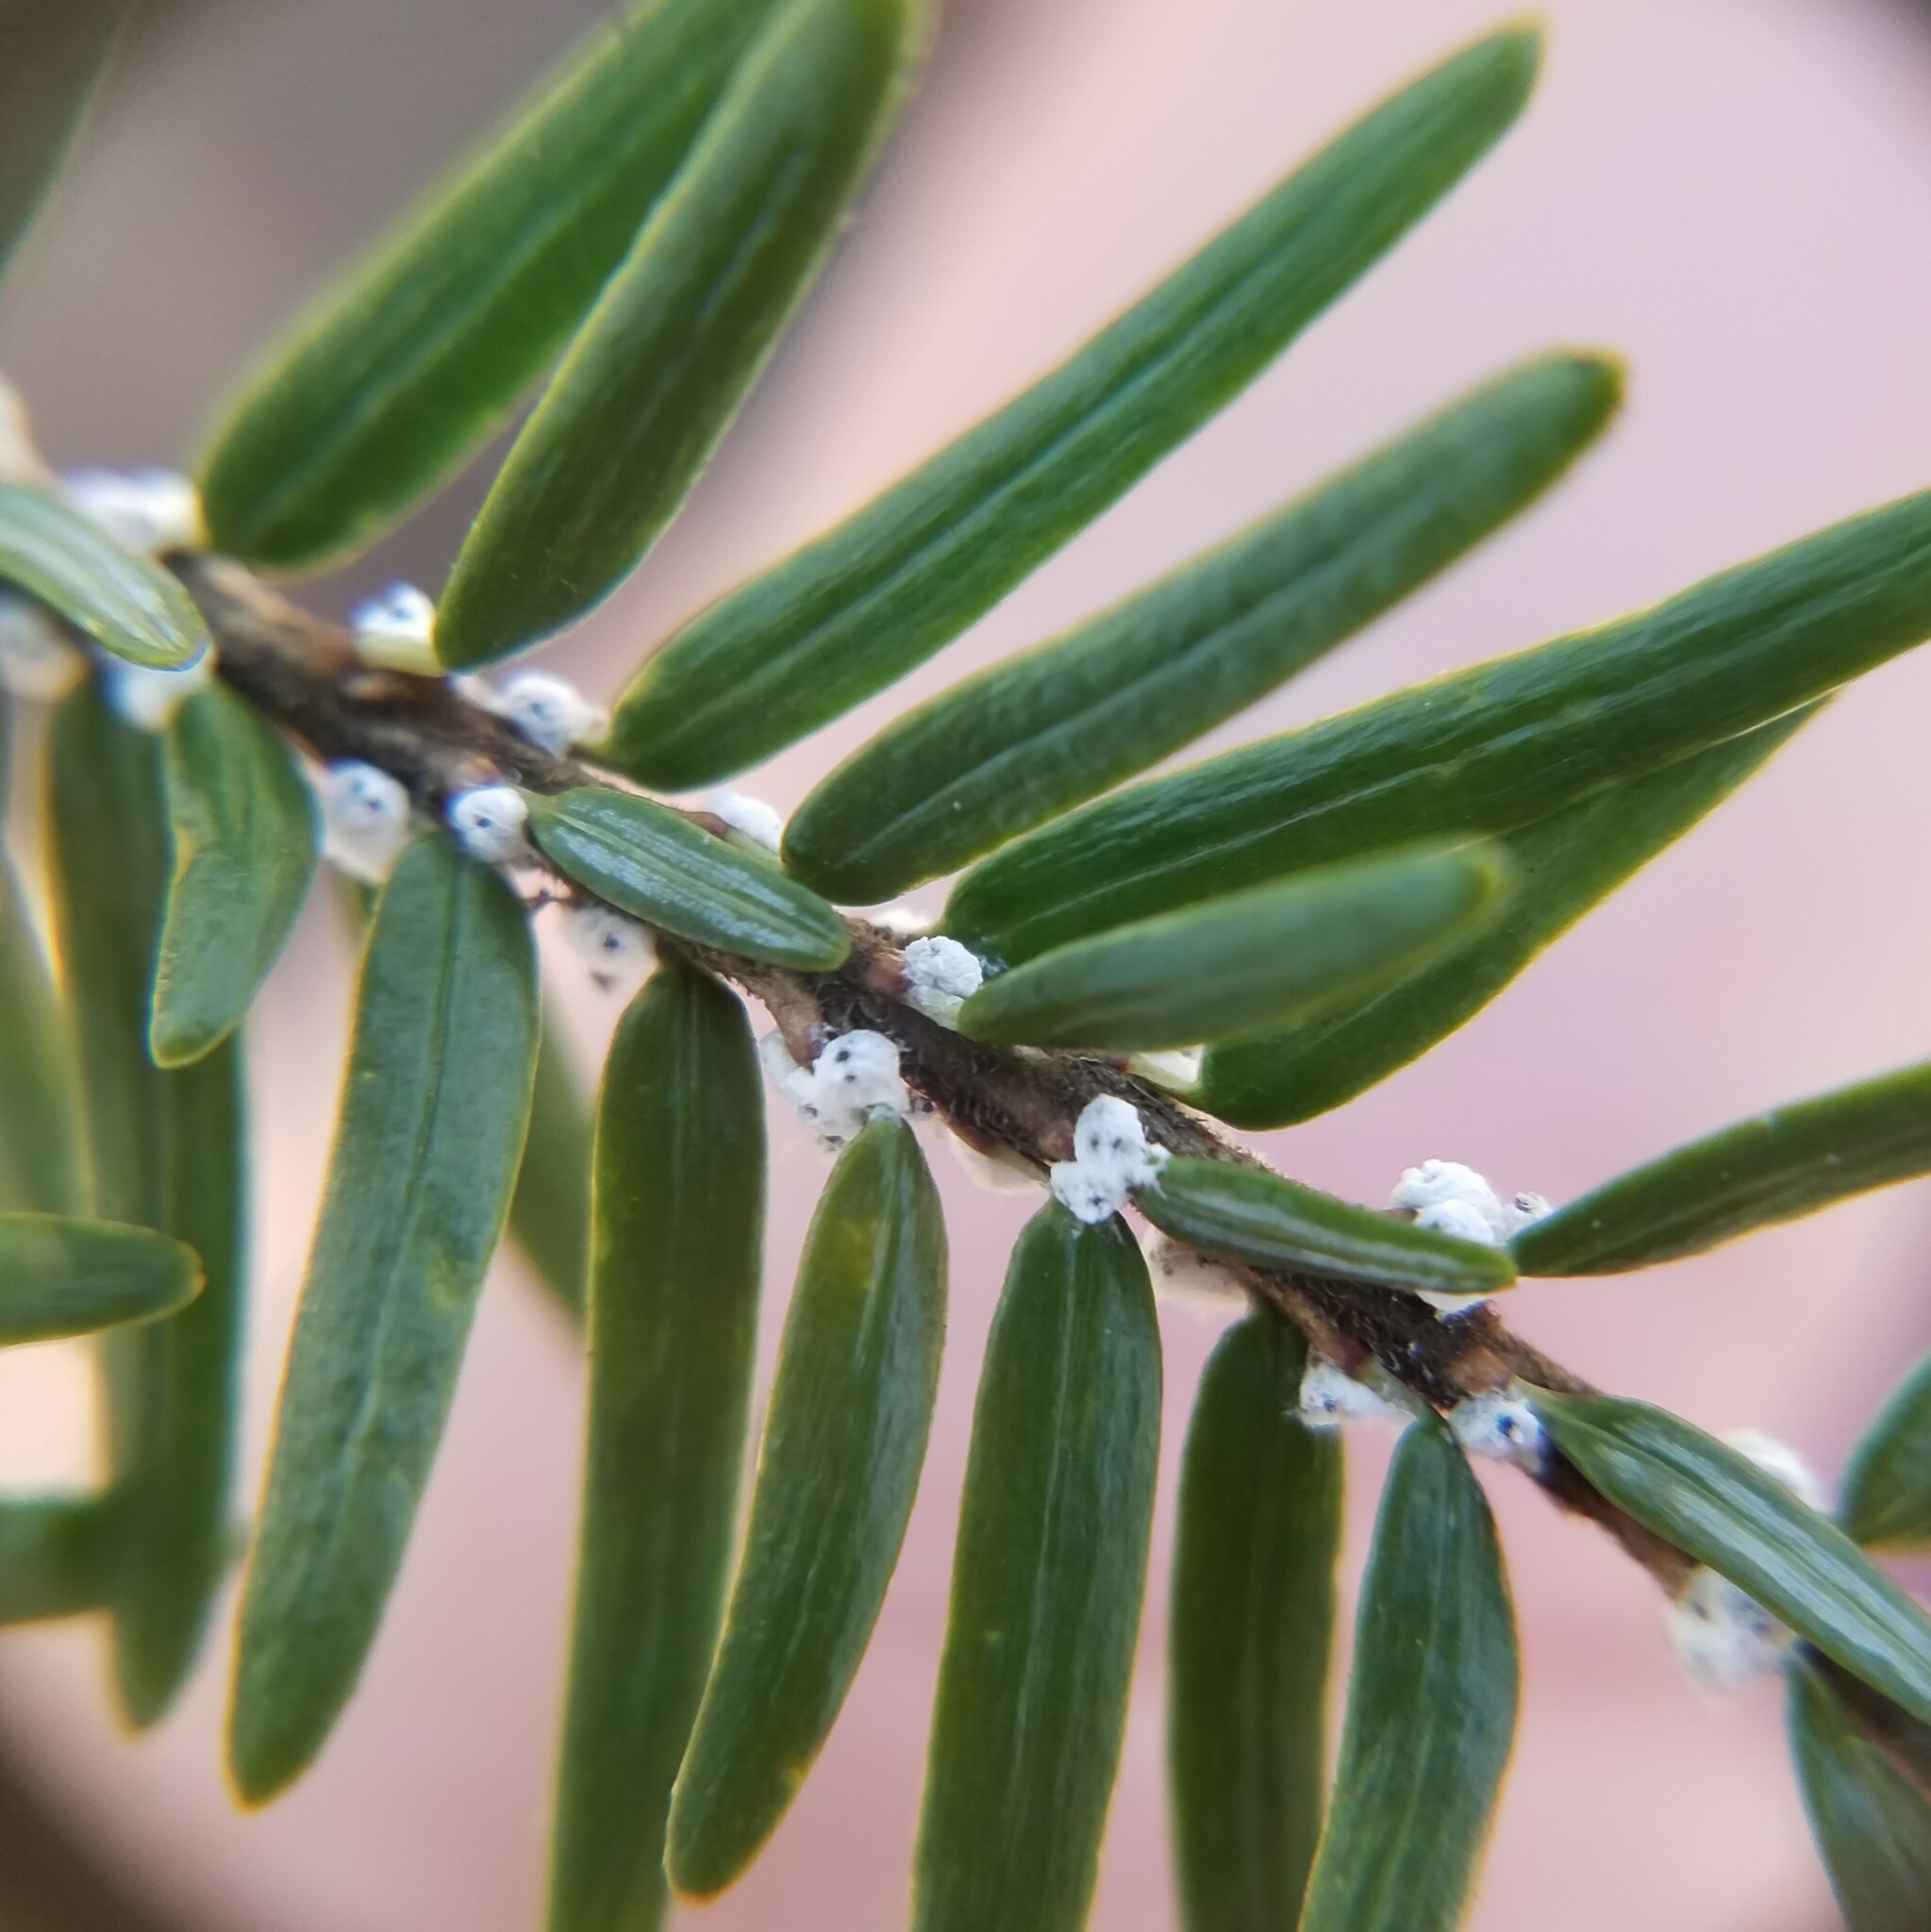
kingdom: Animalia
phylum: Arthropoda
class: Insecta
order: Hemiptera
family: Adelgidae
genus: Adelges
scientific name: Adelges tsugae
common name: Hemlock woolly adelgid
